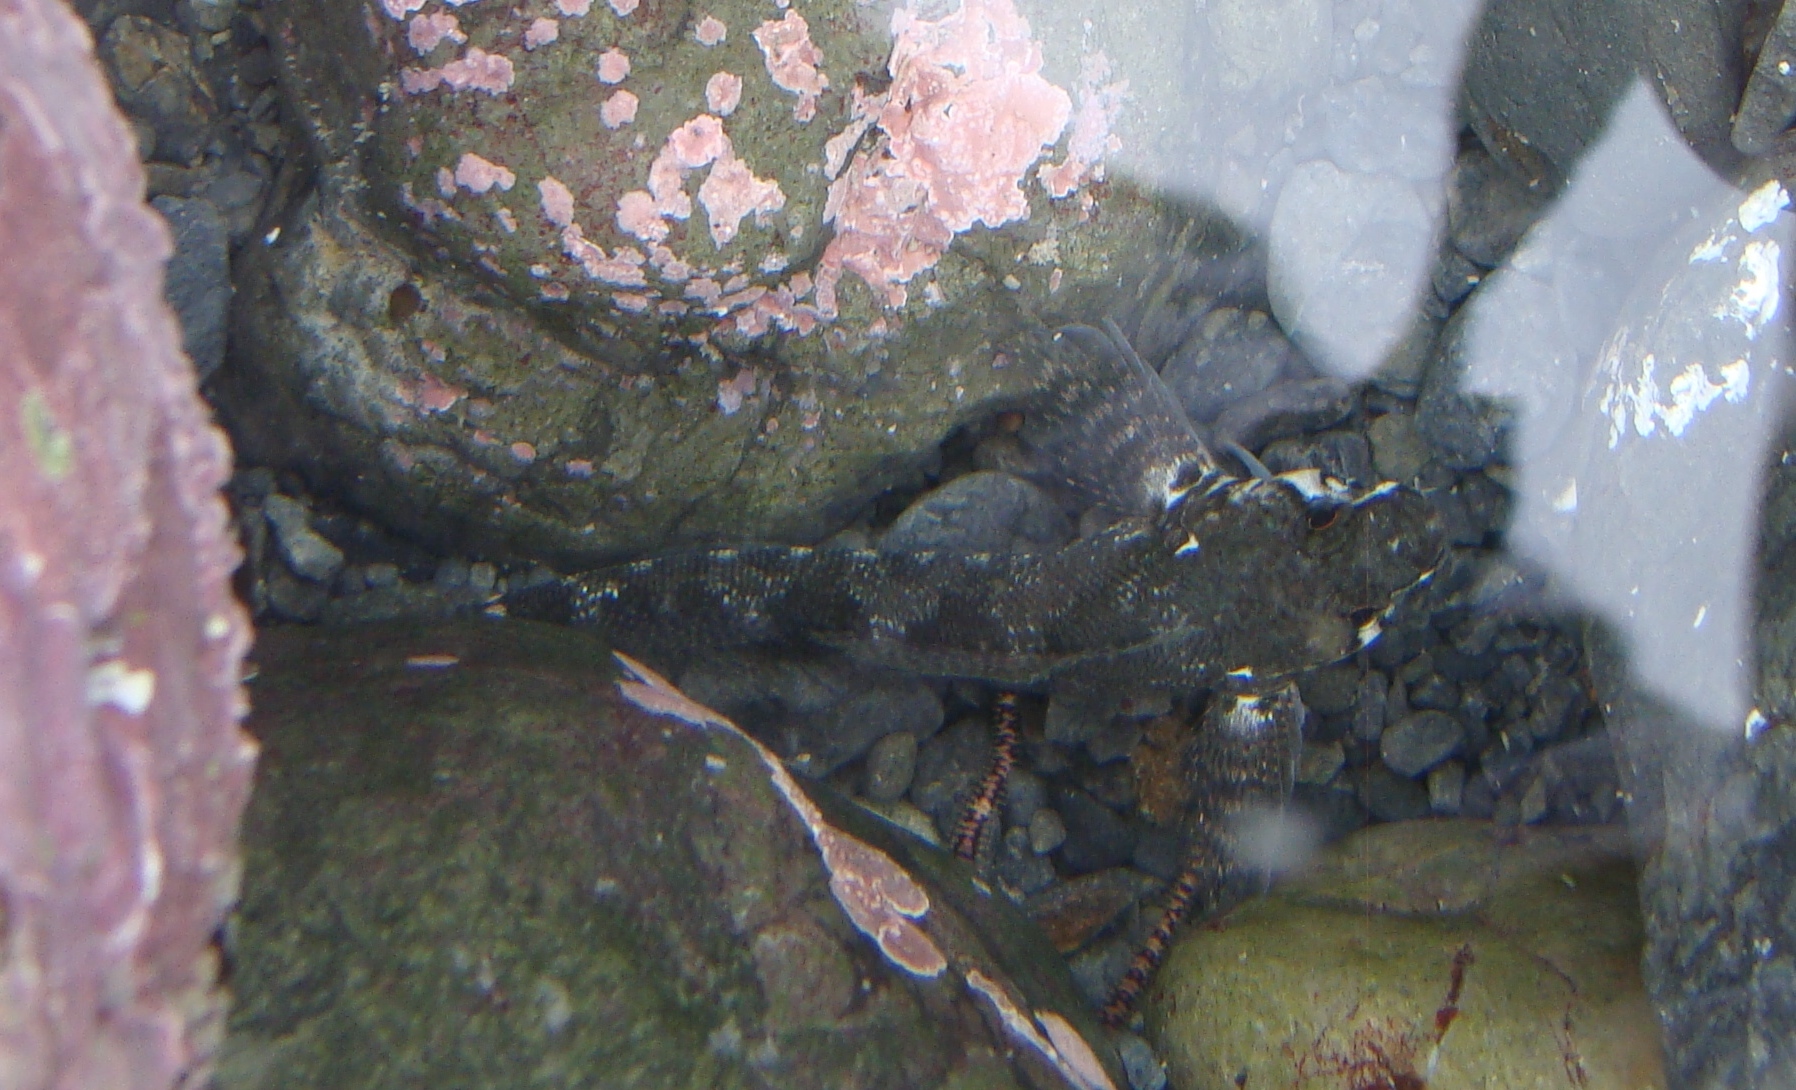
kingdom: Animalia
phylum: Chordata
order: Perciformes
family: Tripterygiidae
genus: Bellapiscis
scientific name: Bellapiscis medius
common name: Twister
